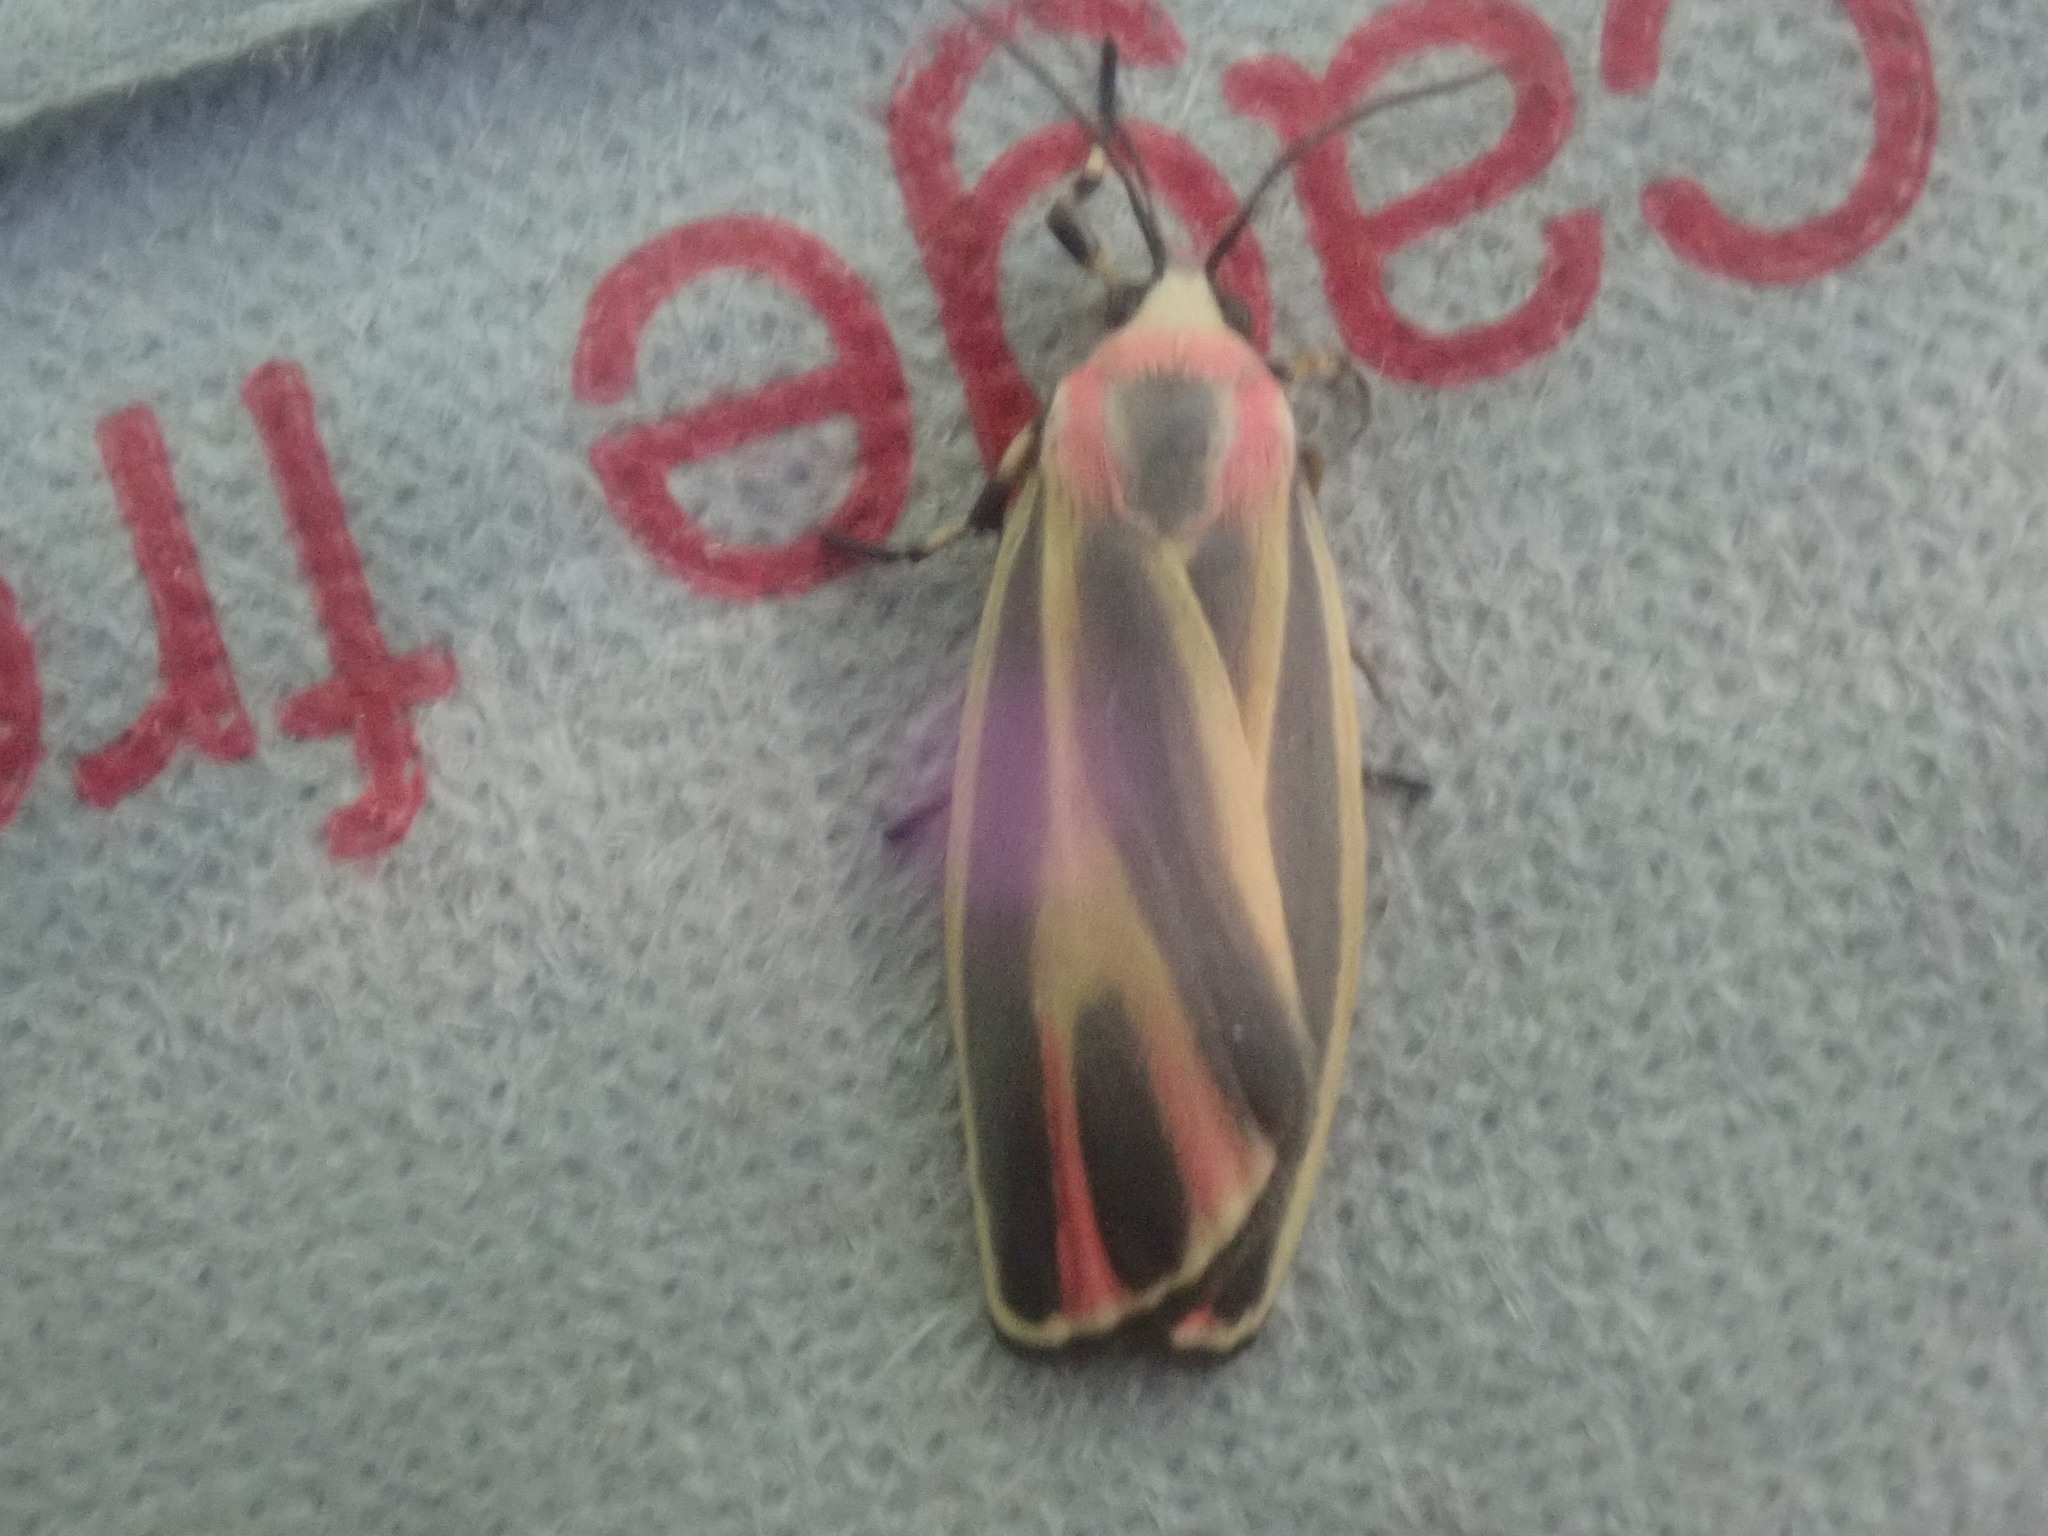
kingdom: Animalia
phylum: Arthropoda
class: Insecta
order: Lepidoptera
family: Erebidae
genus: Hypoprepia
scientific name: Hypoprepia fucosa
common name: Painted lichen moth
